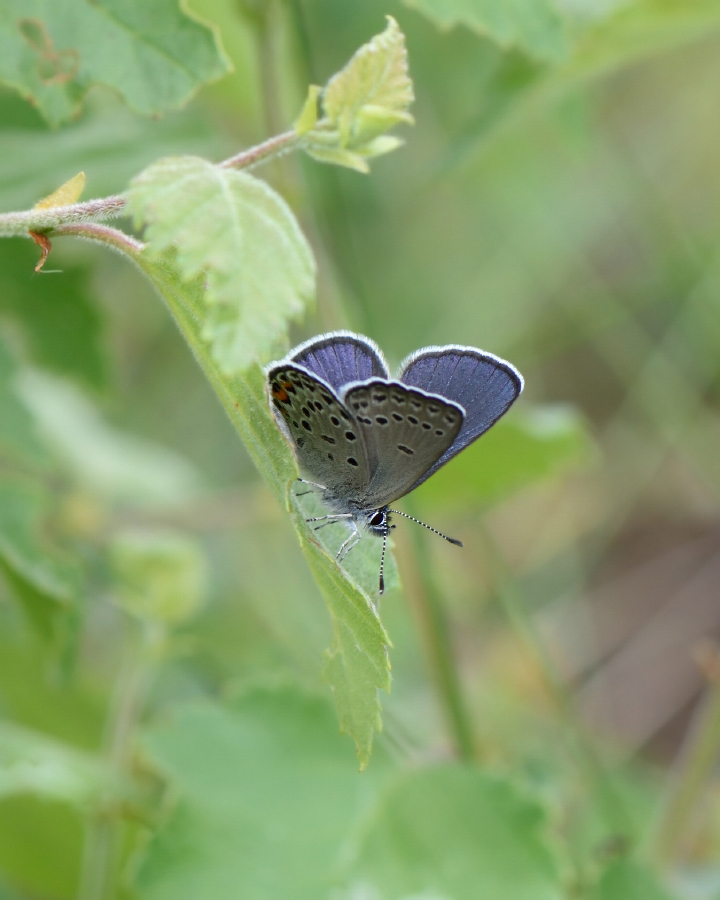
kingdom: Animalia
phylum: Arthropoda
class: Insecta
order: Lepidoptera
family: Lycaenidae
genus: Vacciniina
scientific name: Vacciniina optilete
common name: Cranberry blue
